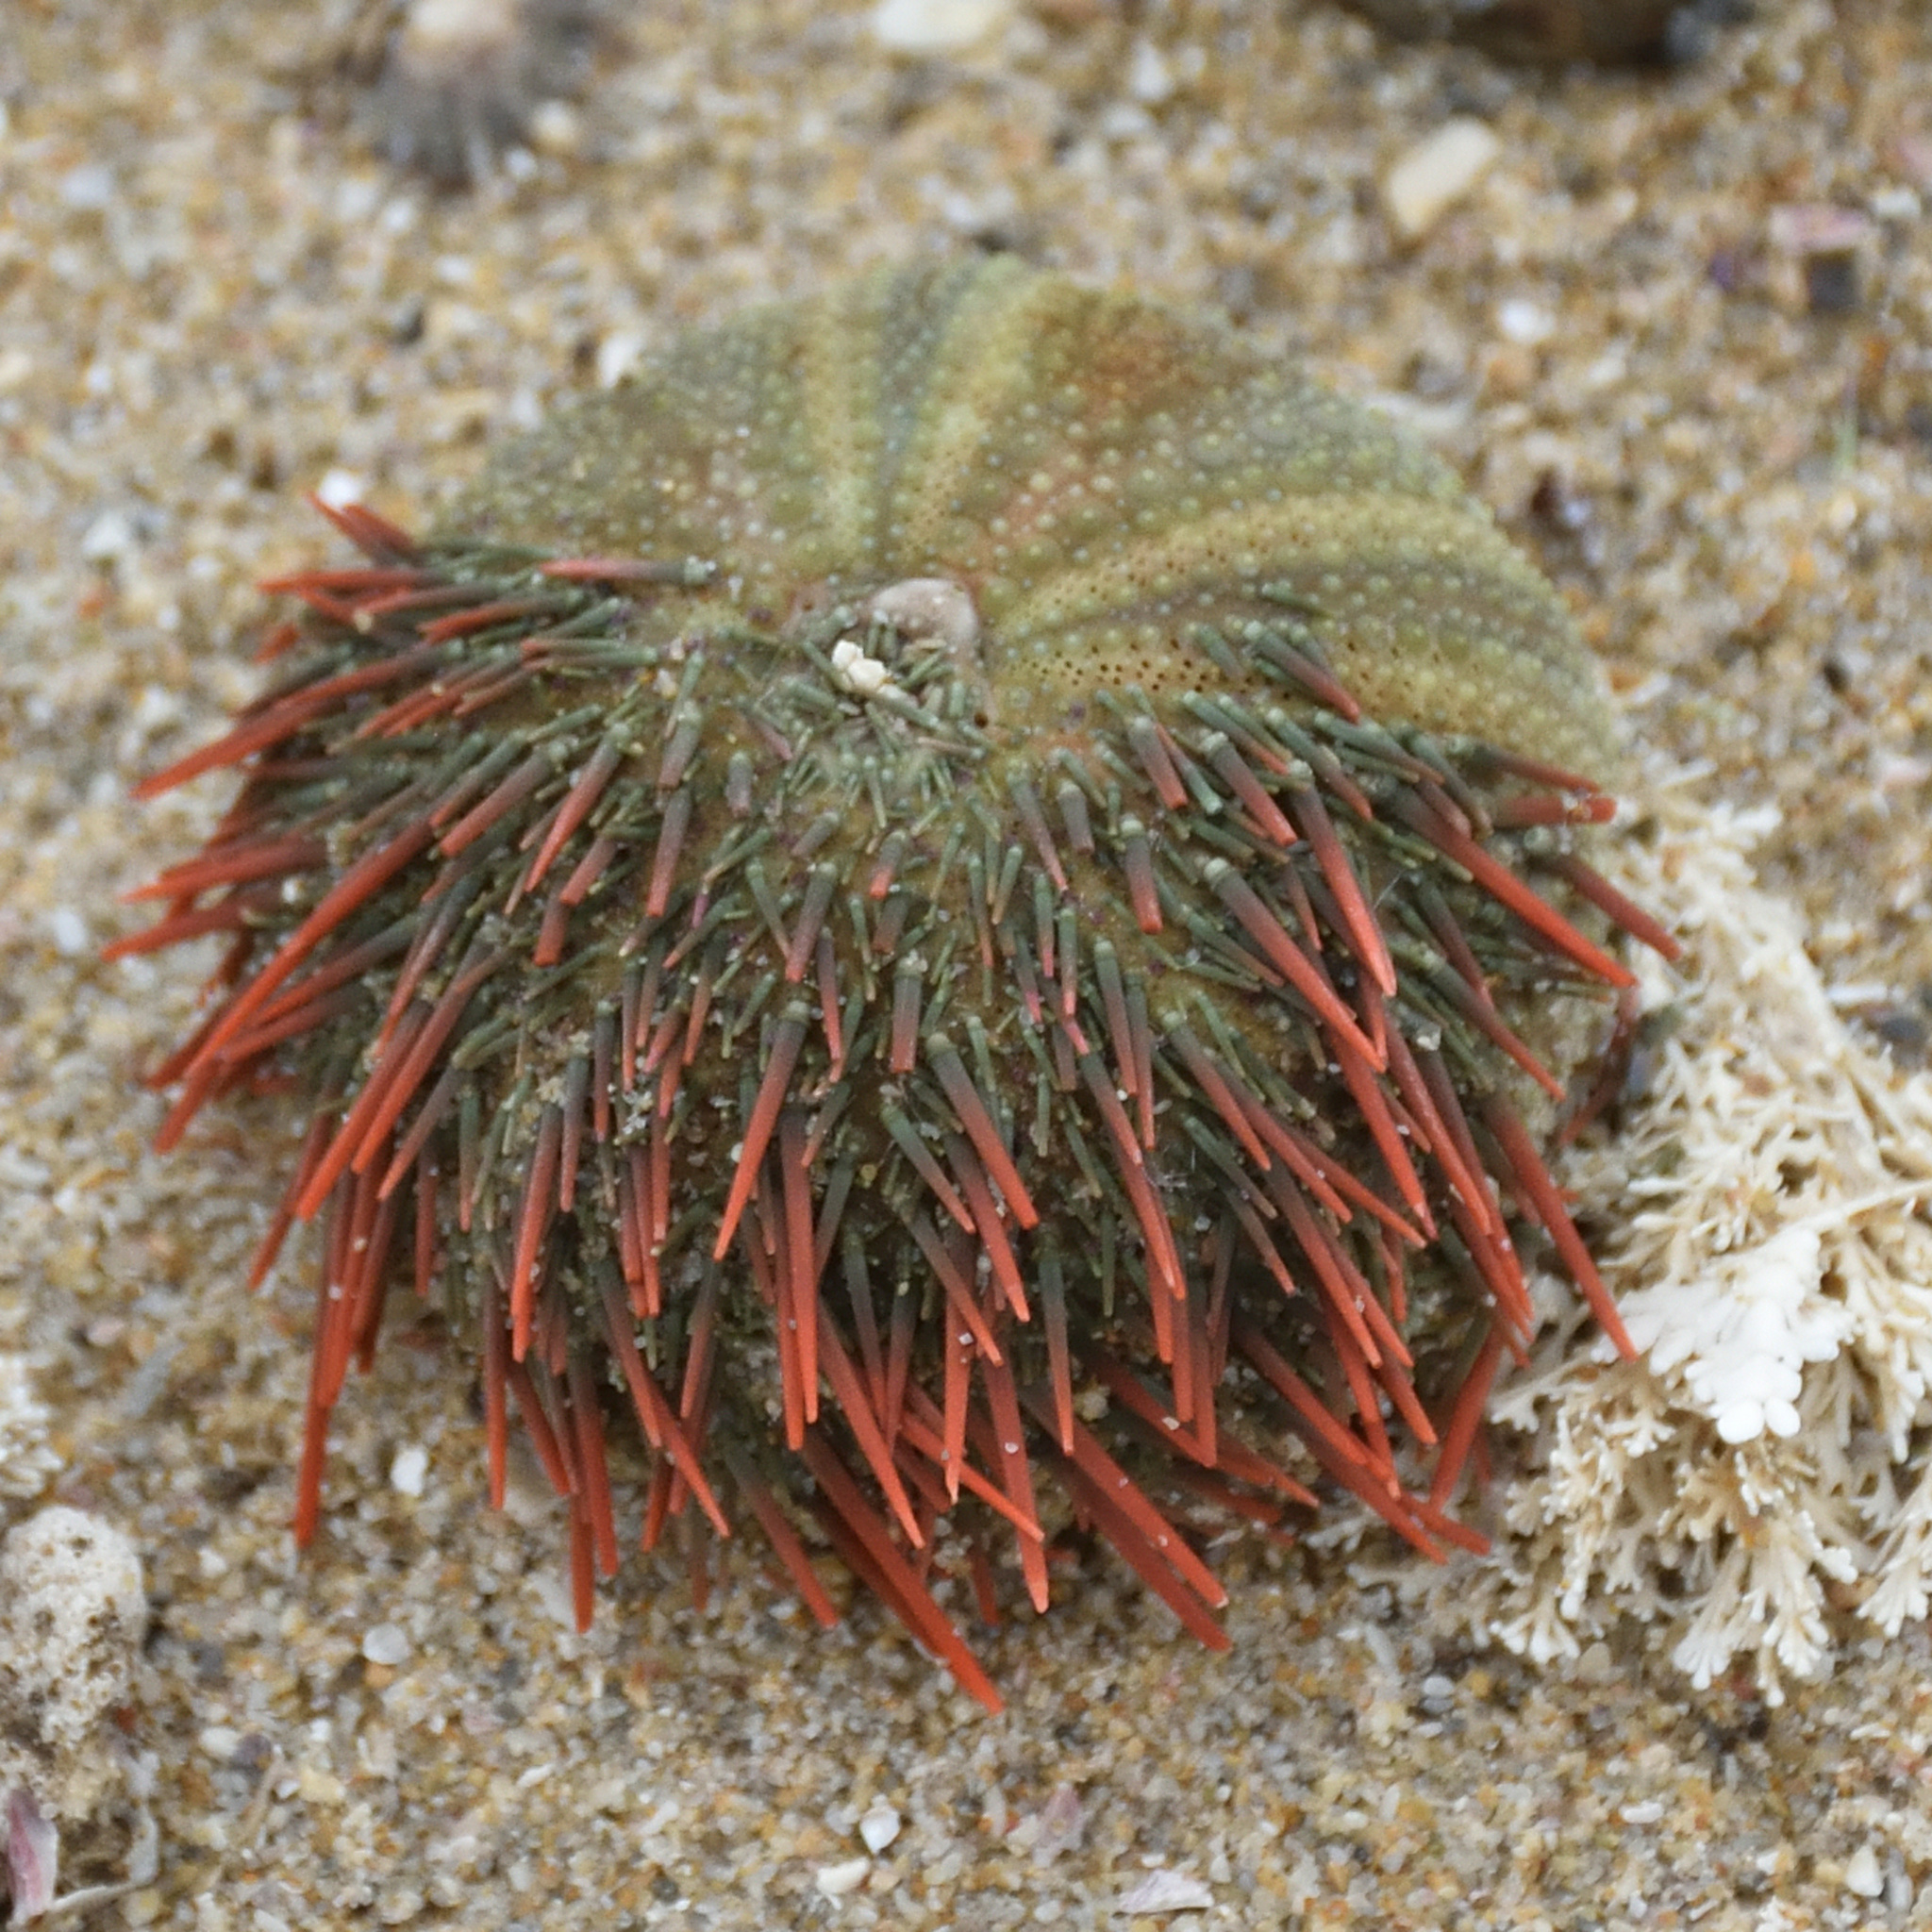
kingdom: Animalia
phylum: Echinodermata
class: Echinoidea
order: Camarodonta
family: Parechinidae
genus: Parechinus
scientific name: Parechinus angulosus
